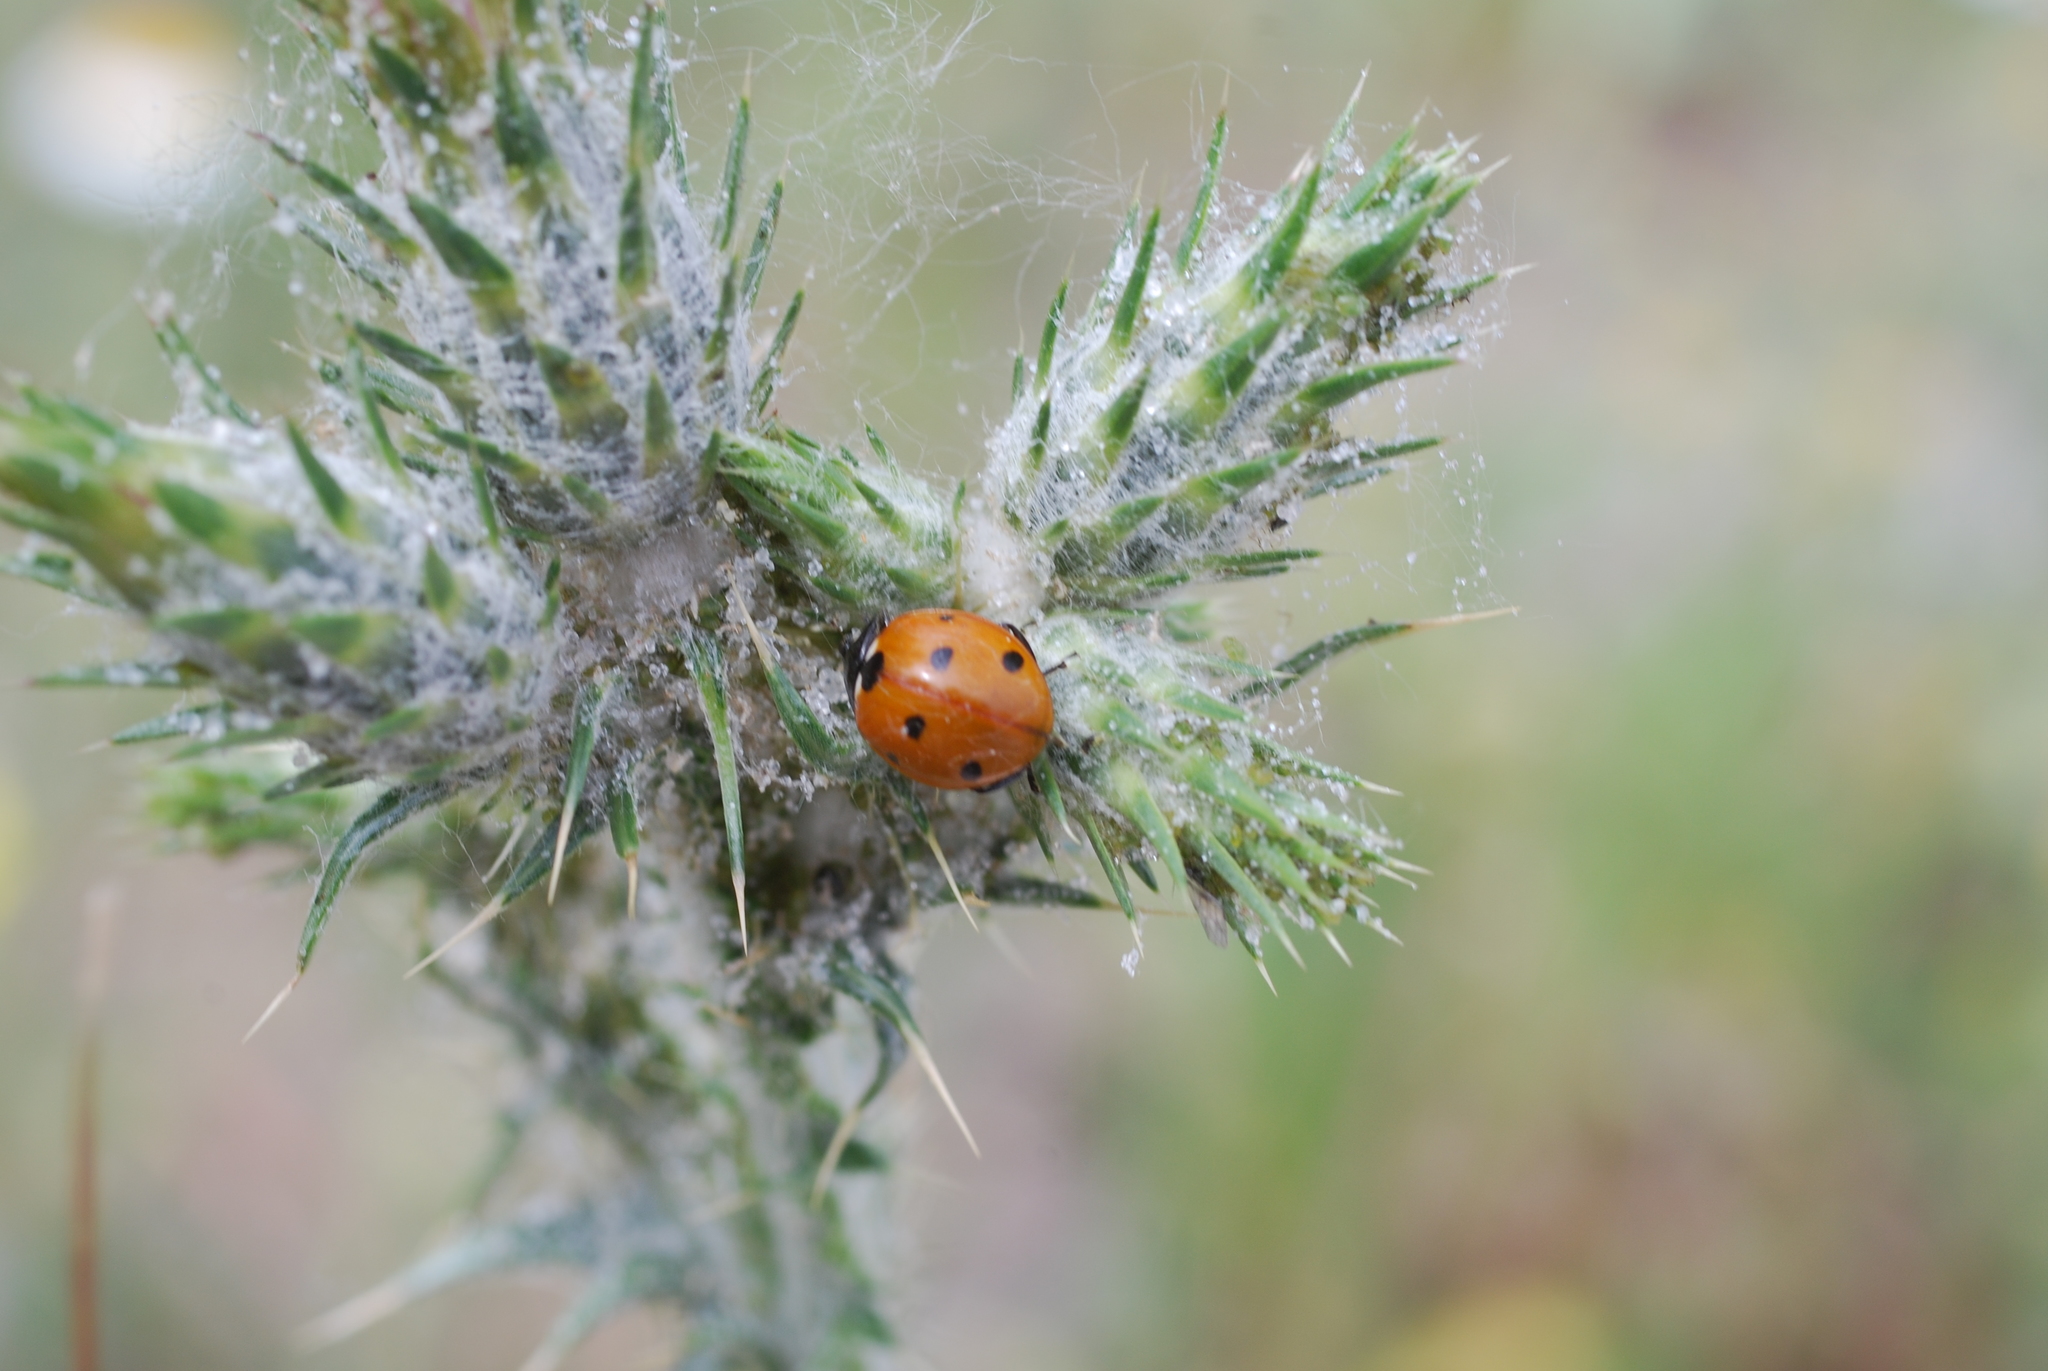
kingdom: Animalia
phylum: Arthropoda
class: Insecta
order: Coleoptera
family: Coccinellidae
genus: Coccinella
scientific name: Coccinella septempunctata
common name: Sevenspotted lady beetle
